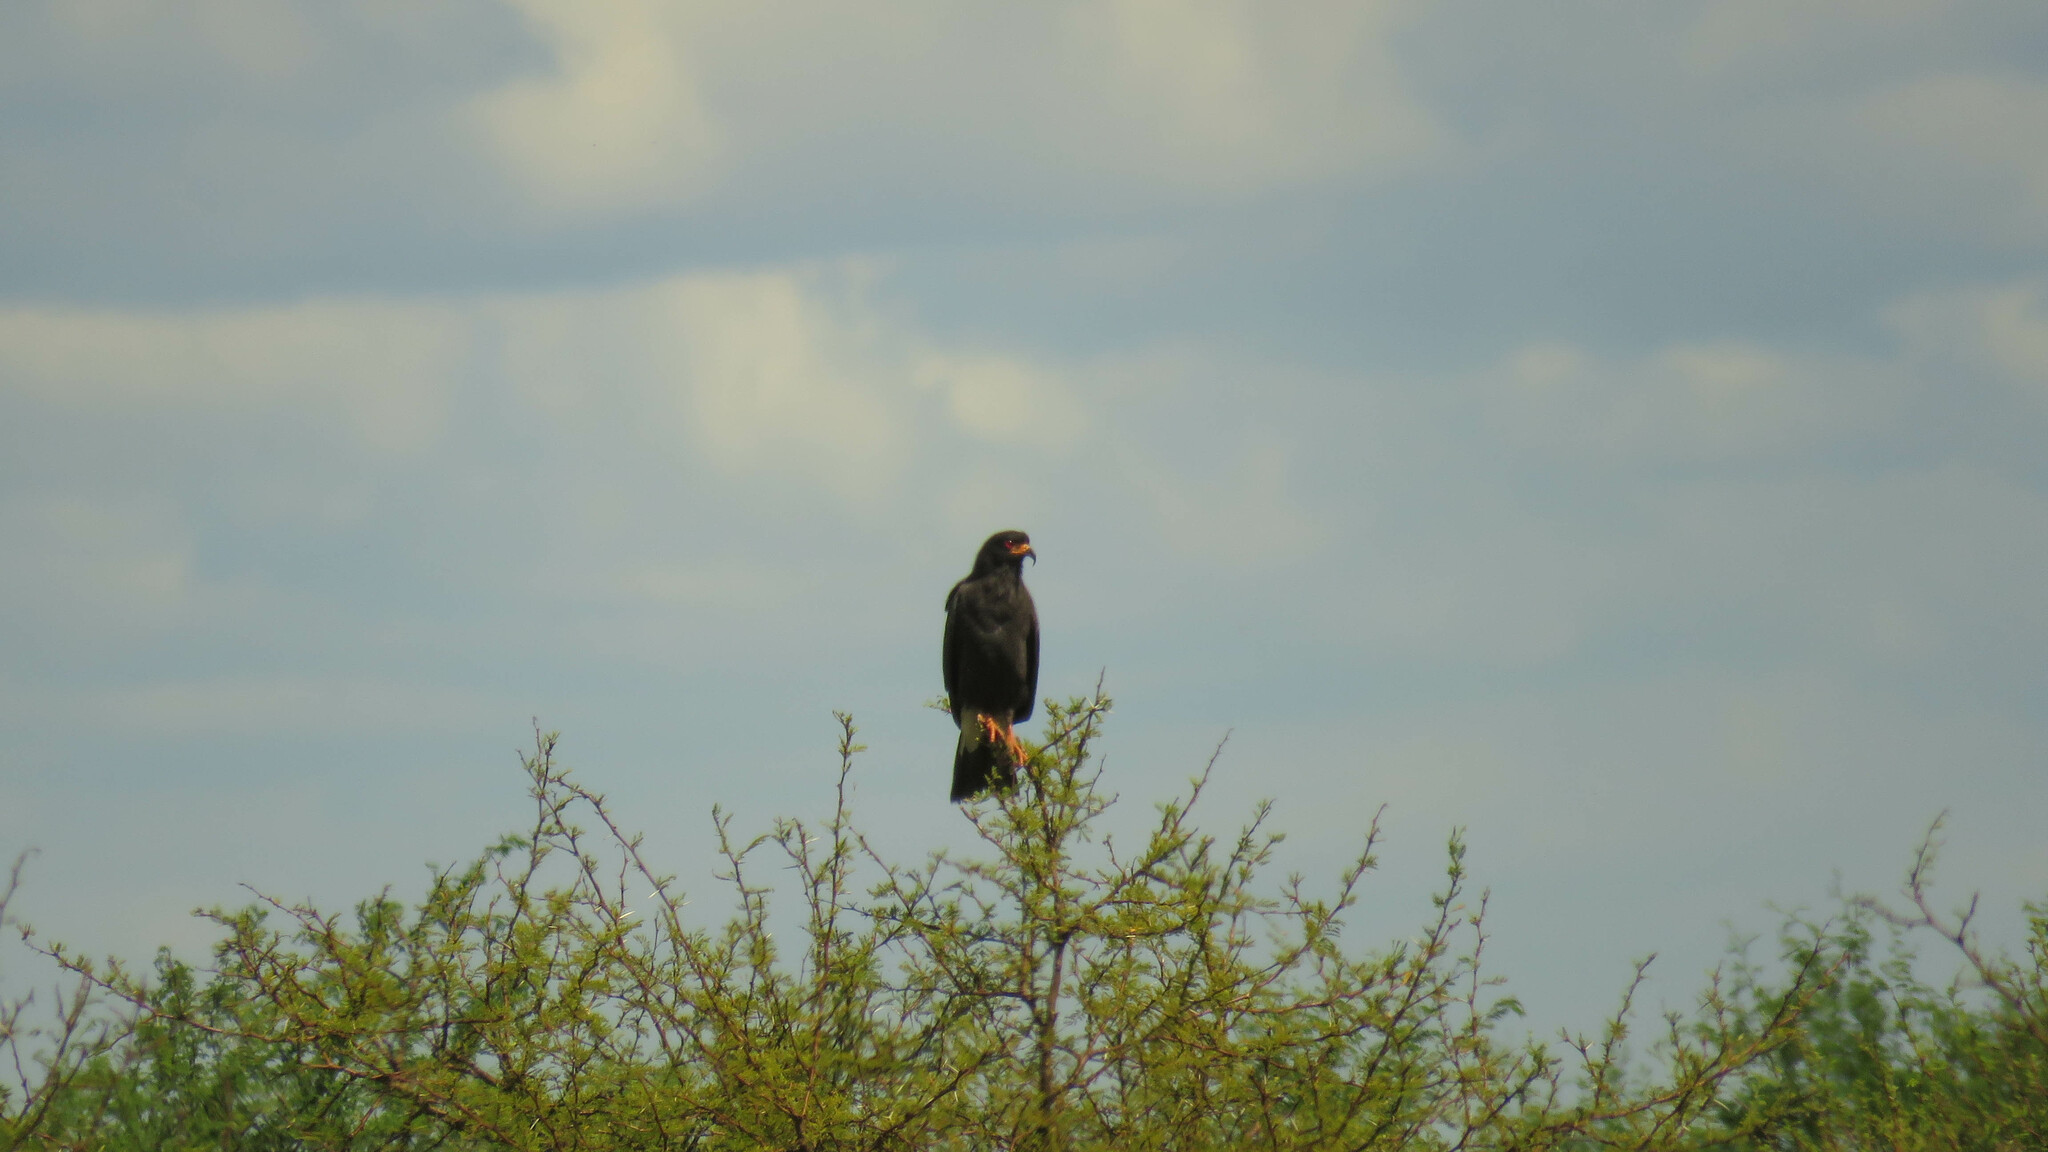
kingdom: Animalia
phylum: Chordata
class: Aves
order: Accipitriformes
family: Accipitridae
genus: Rostrhamus
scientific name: Rostrhamus sociabilis
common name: Snail kite
